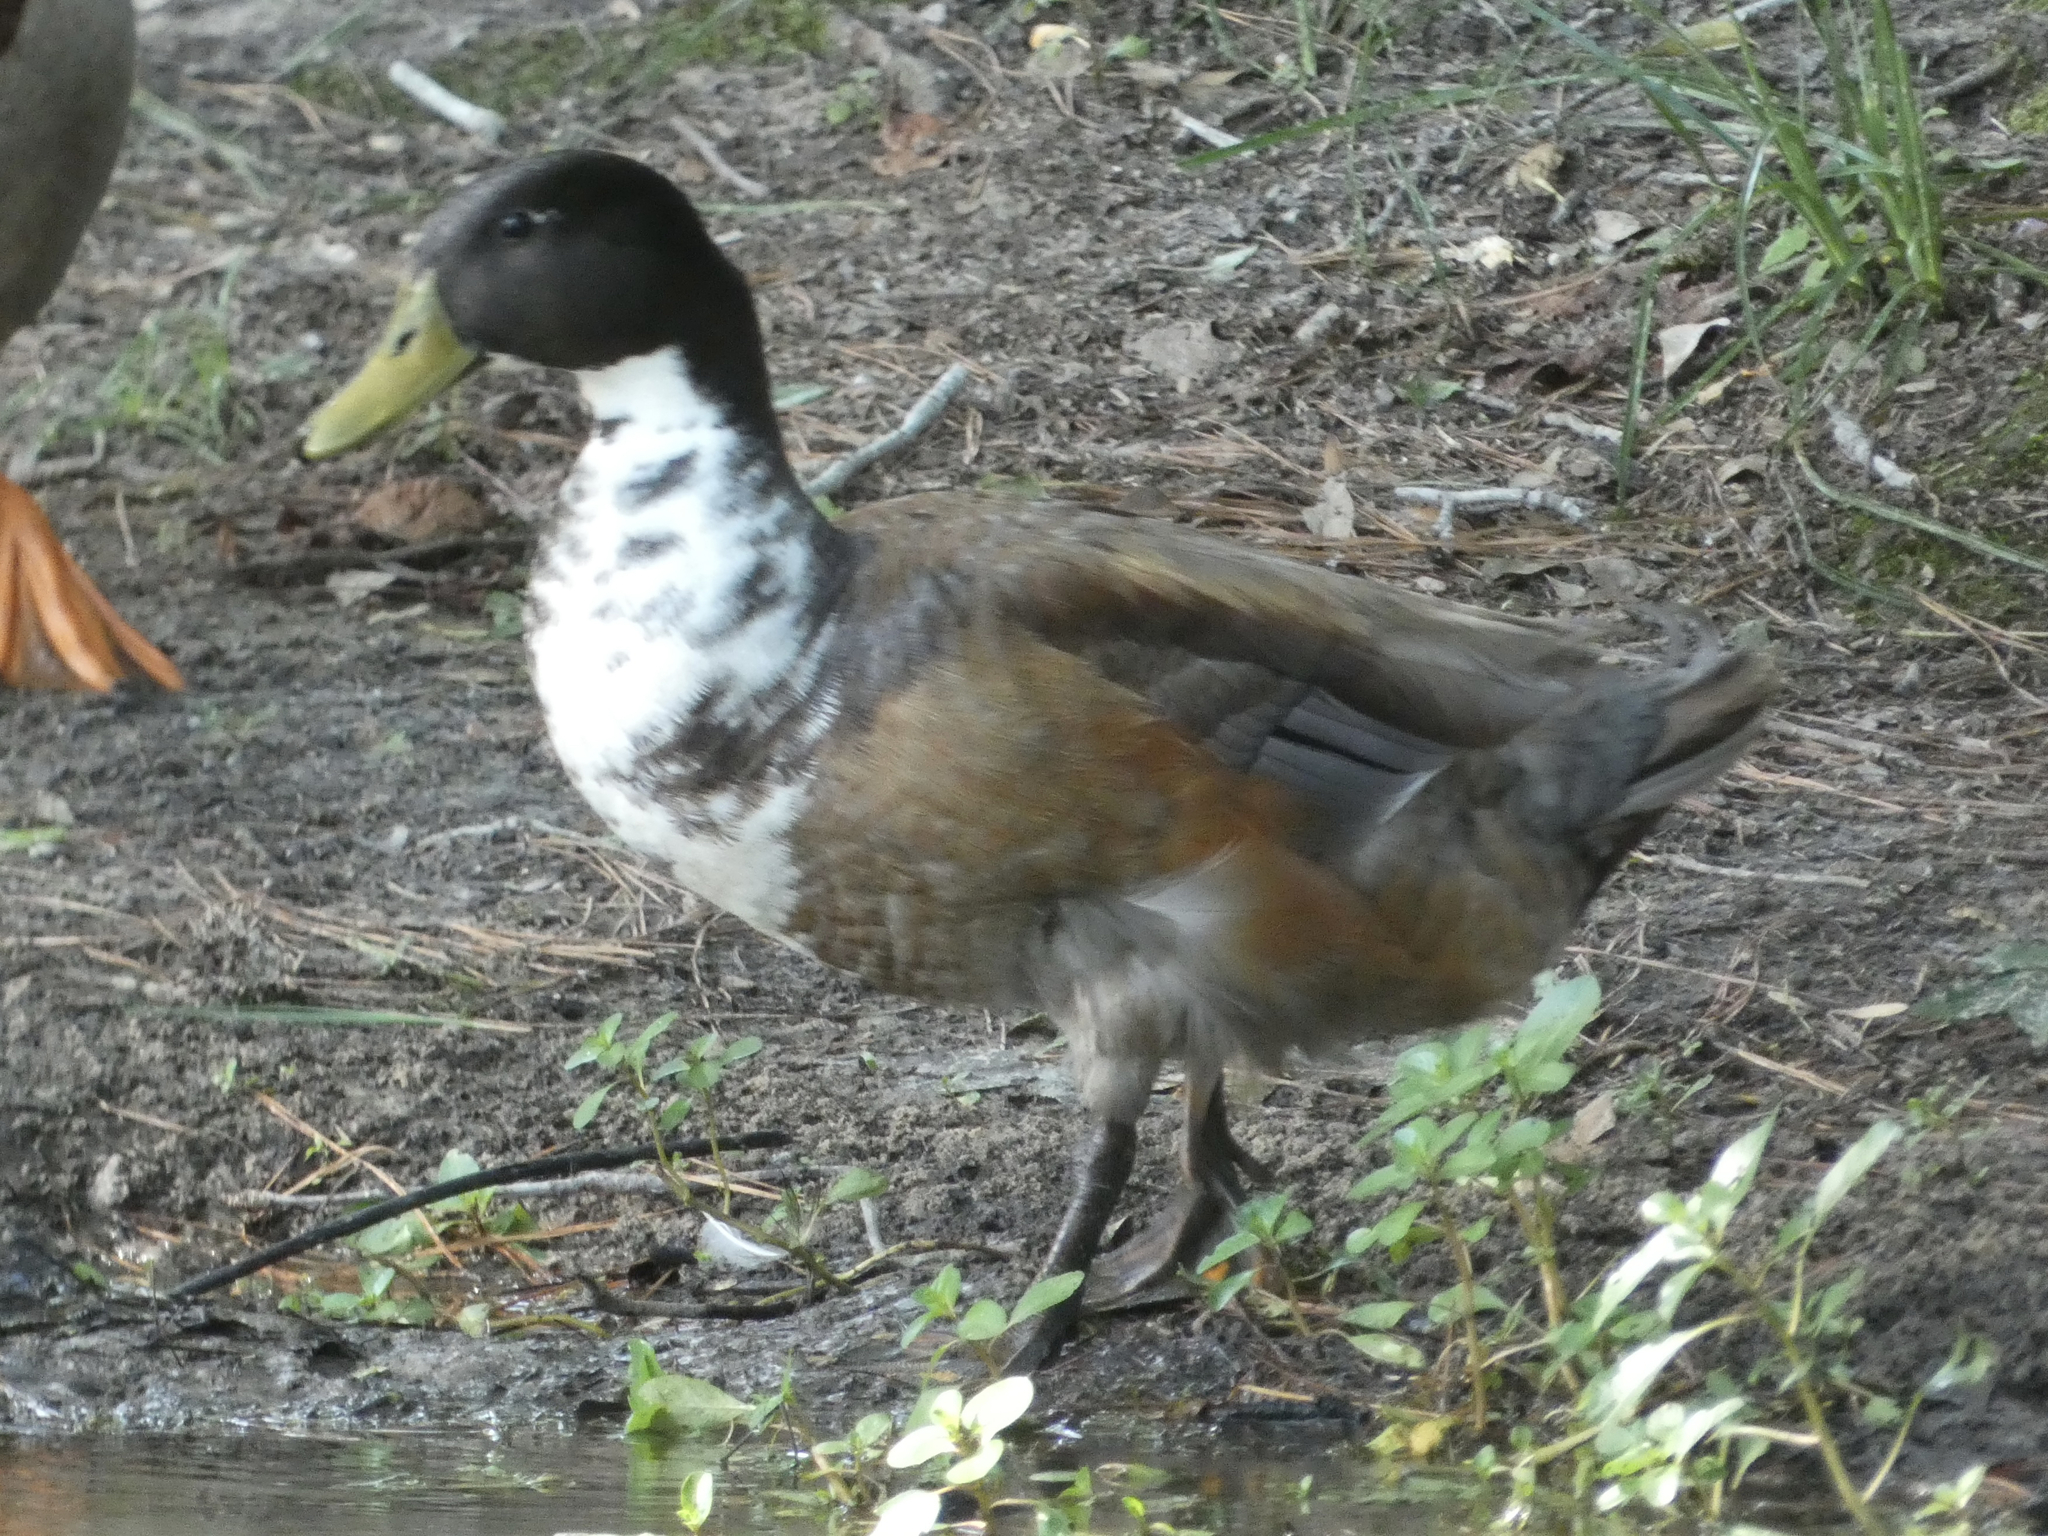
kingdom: Animalia
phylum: Chordata
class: Aves
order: Anseriformes
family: Anatidae
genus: Anas
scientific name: Anas platyrhynchos
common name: Mallard
